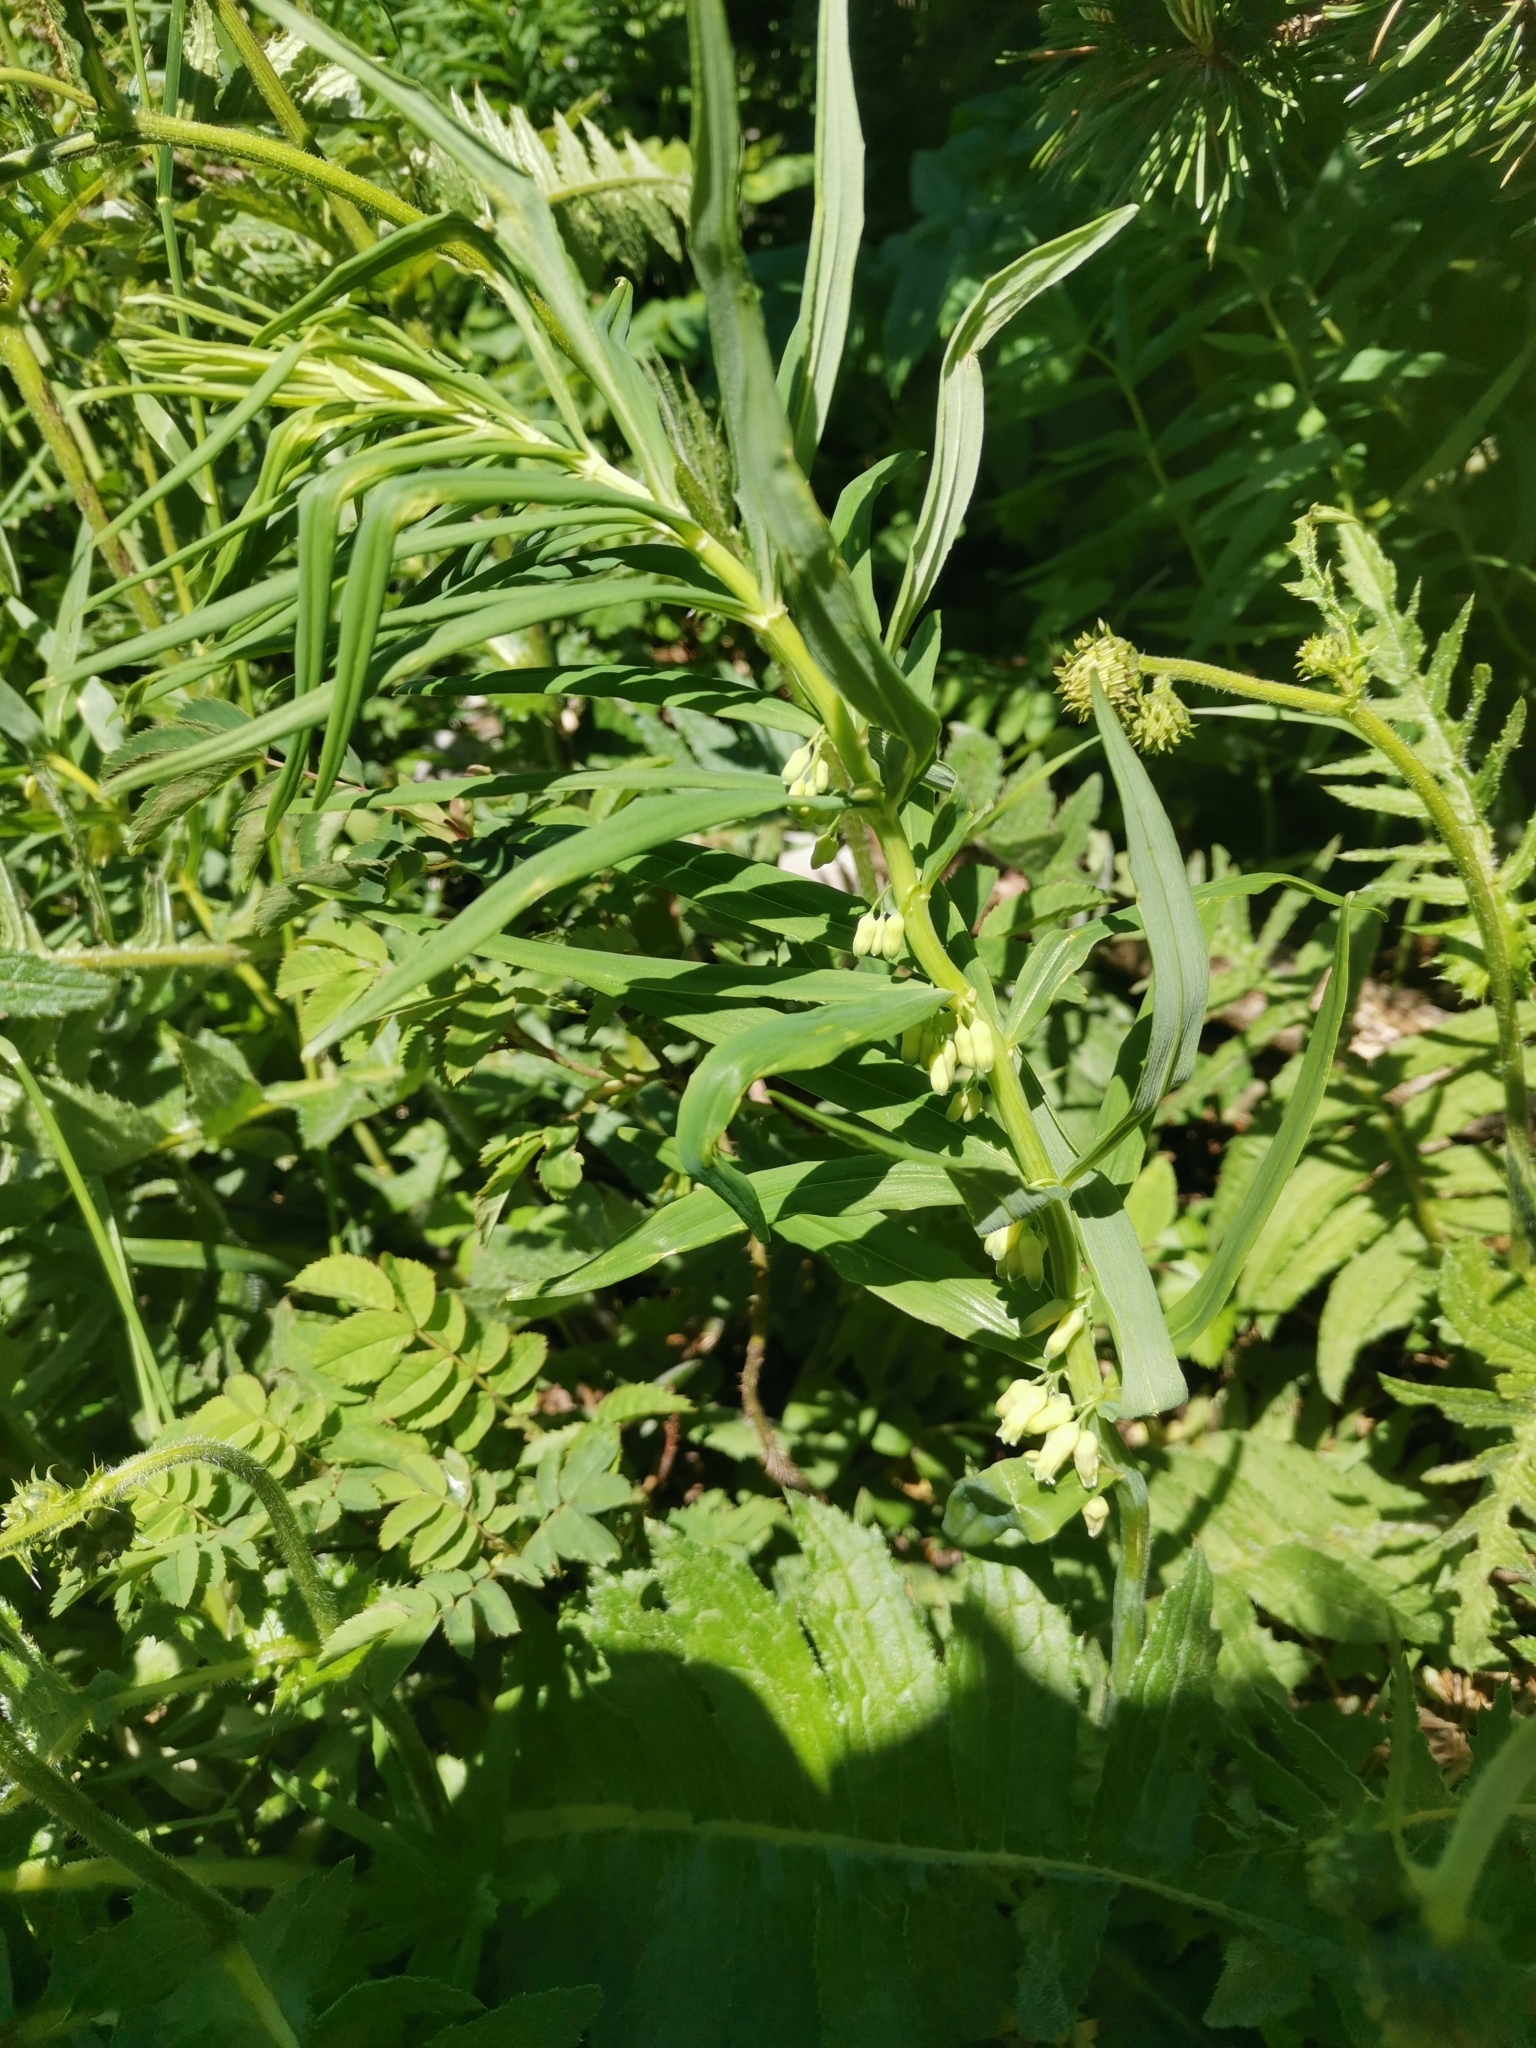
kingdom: Plantae
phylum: Tracheophyta
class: Liliopsida
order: Asparagales
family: Asparagaceae
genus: Polygonatum
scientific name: Polygonatum verticillatum
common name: Whorled solomon's-seal
